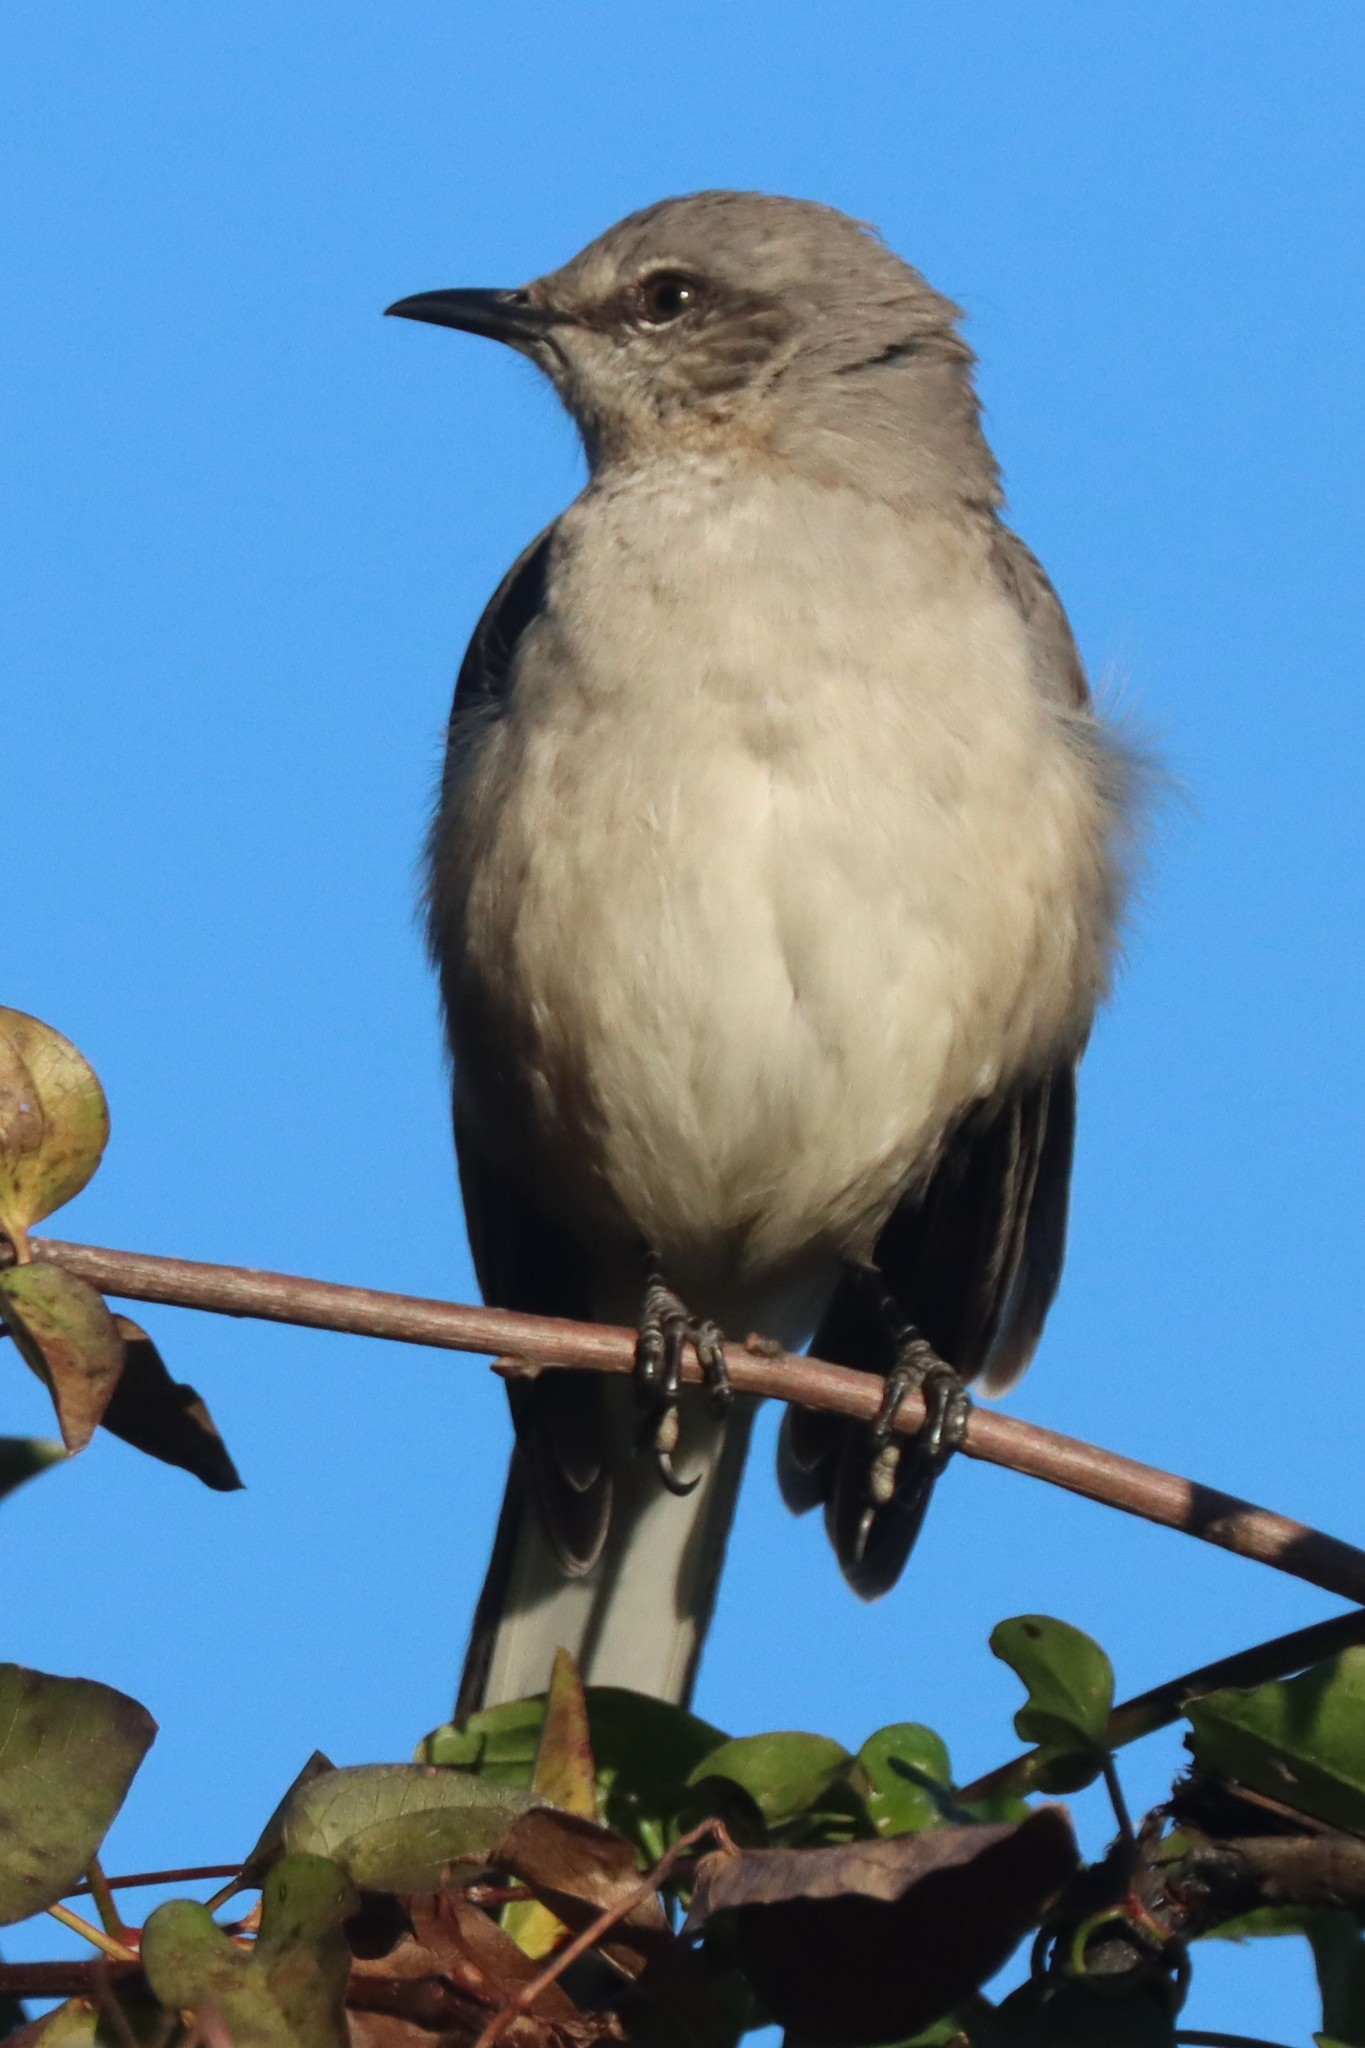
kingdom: Animalia
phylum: Chordata
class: Aves
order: Passeriformes
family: Mimidae
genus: Mimus
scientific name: Mimus polyglottos
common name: Northern mockingbird
